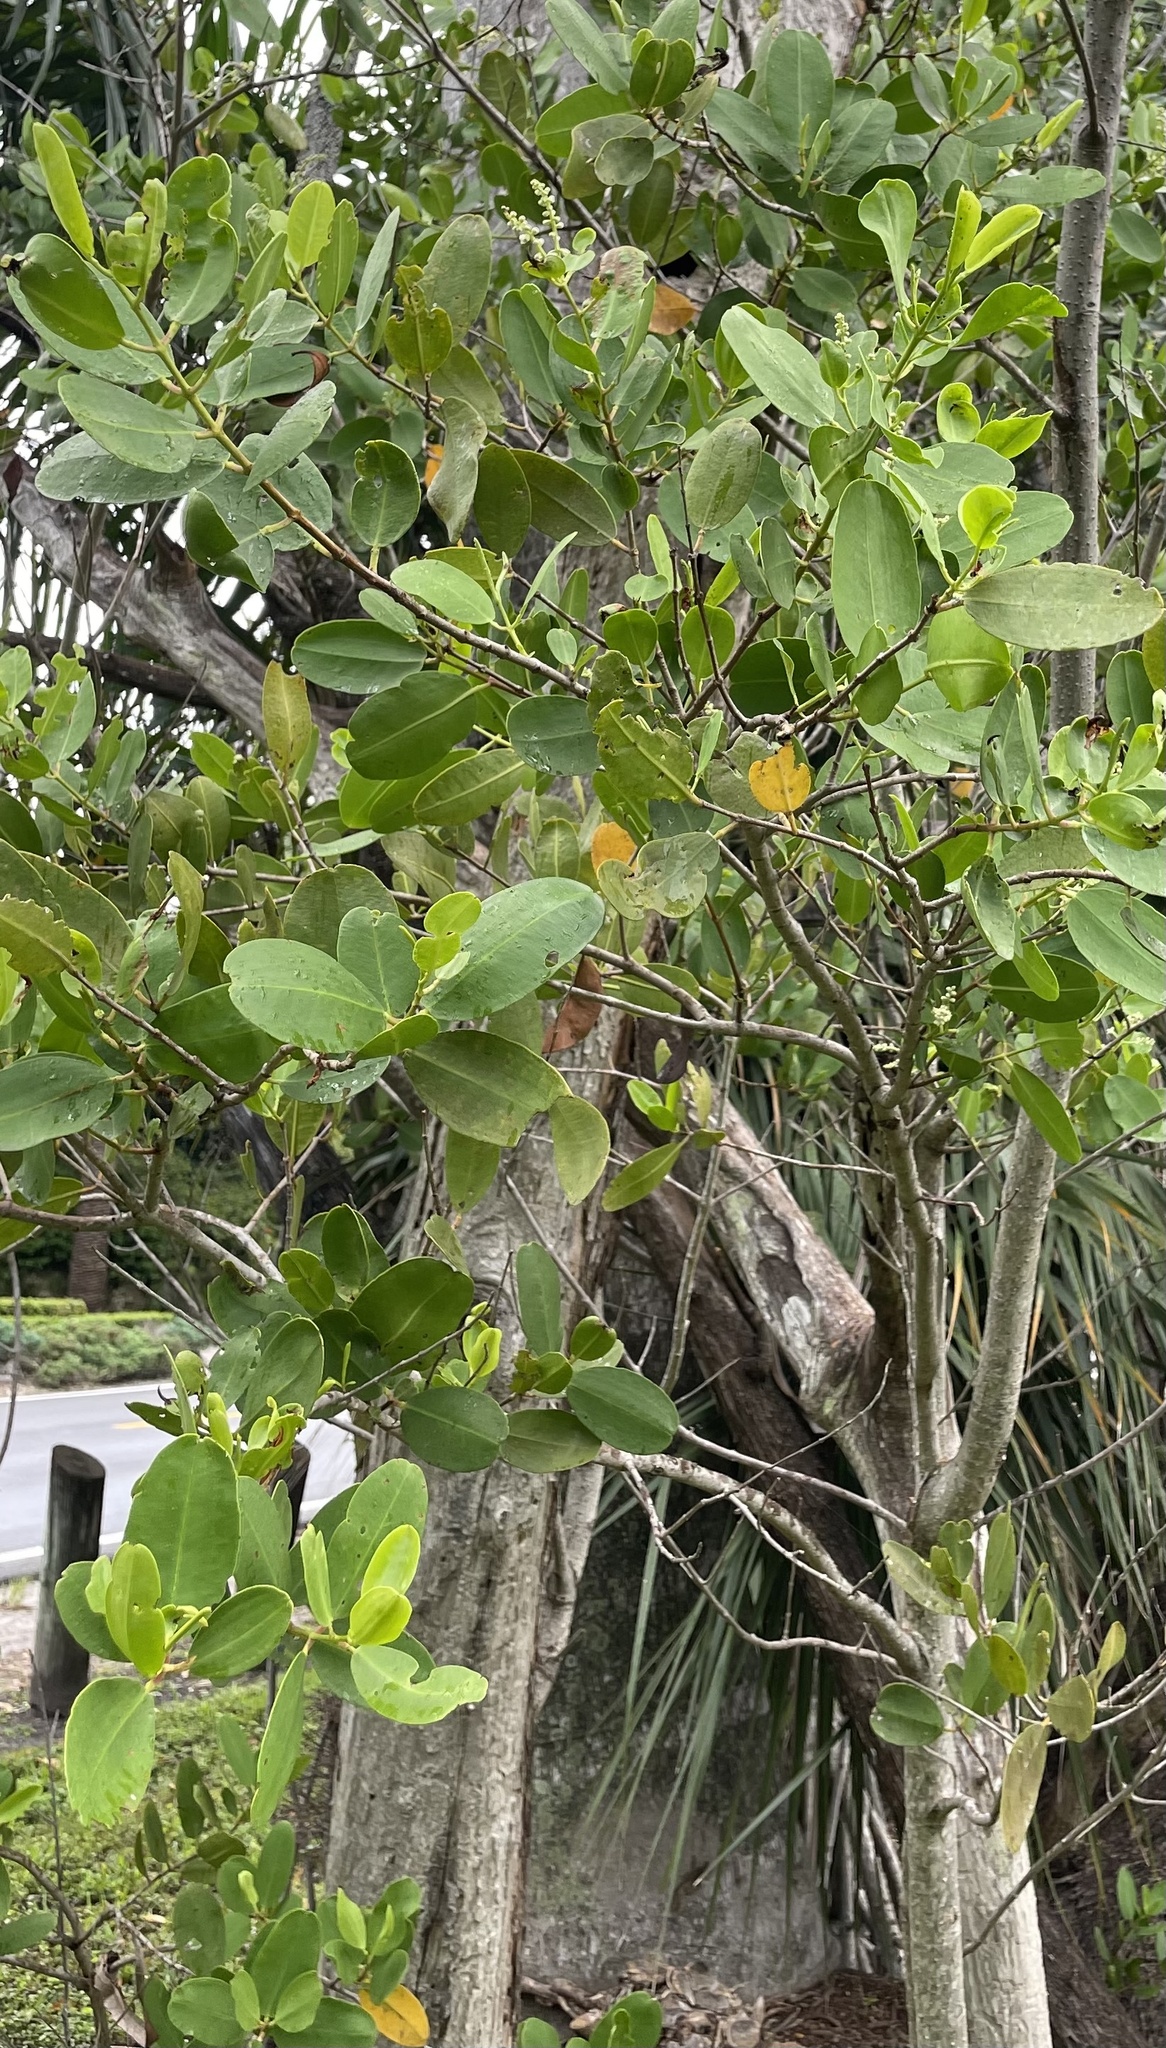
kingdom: Plantae
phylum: Tracheophyta
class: Magnoliopsida
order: Myrtales
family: Combretaceae
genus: Laguncularia
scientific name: Laguncularia racemosa
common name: White mangrove
